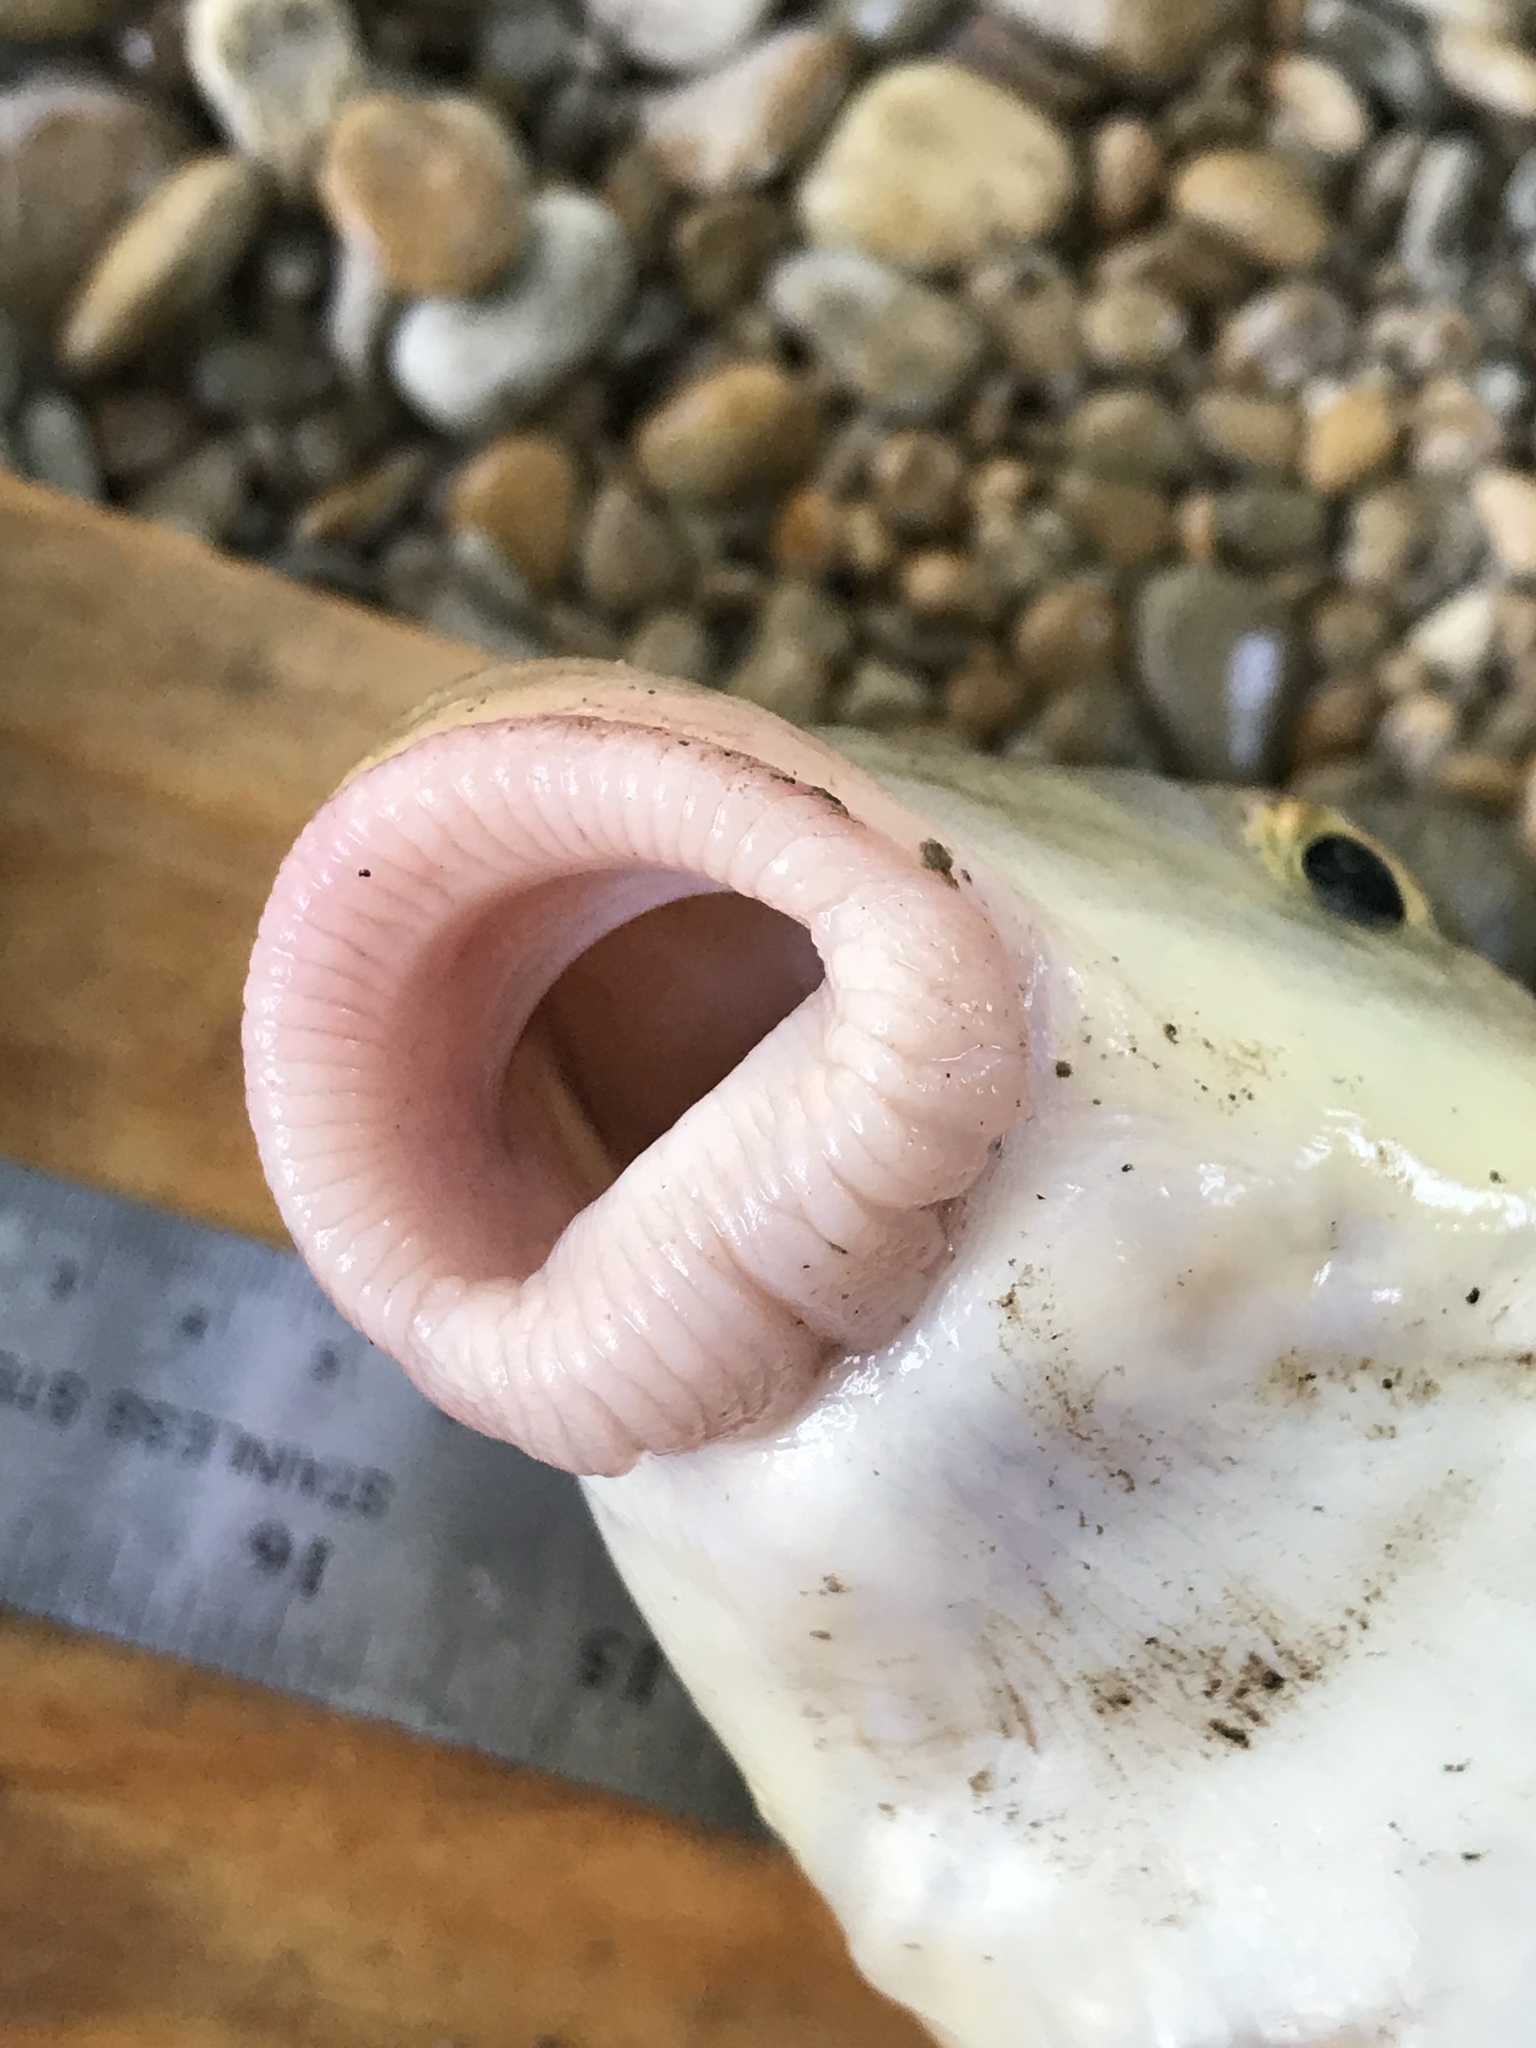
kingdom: Animalia
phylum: Chordata
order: Cypriniformes
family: Catostomidae
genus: Moxostoma
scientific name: Moxostoma congestum
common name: Gray redhorse
